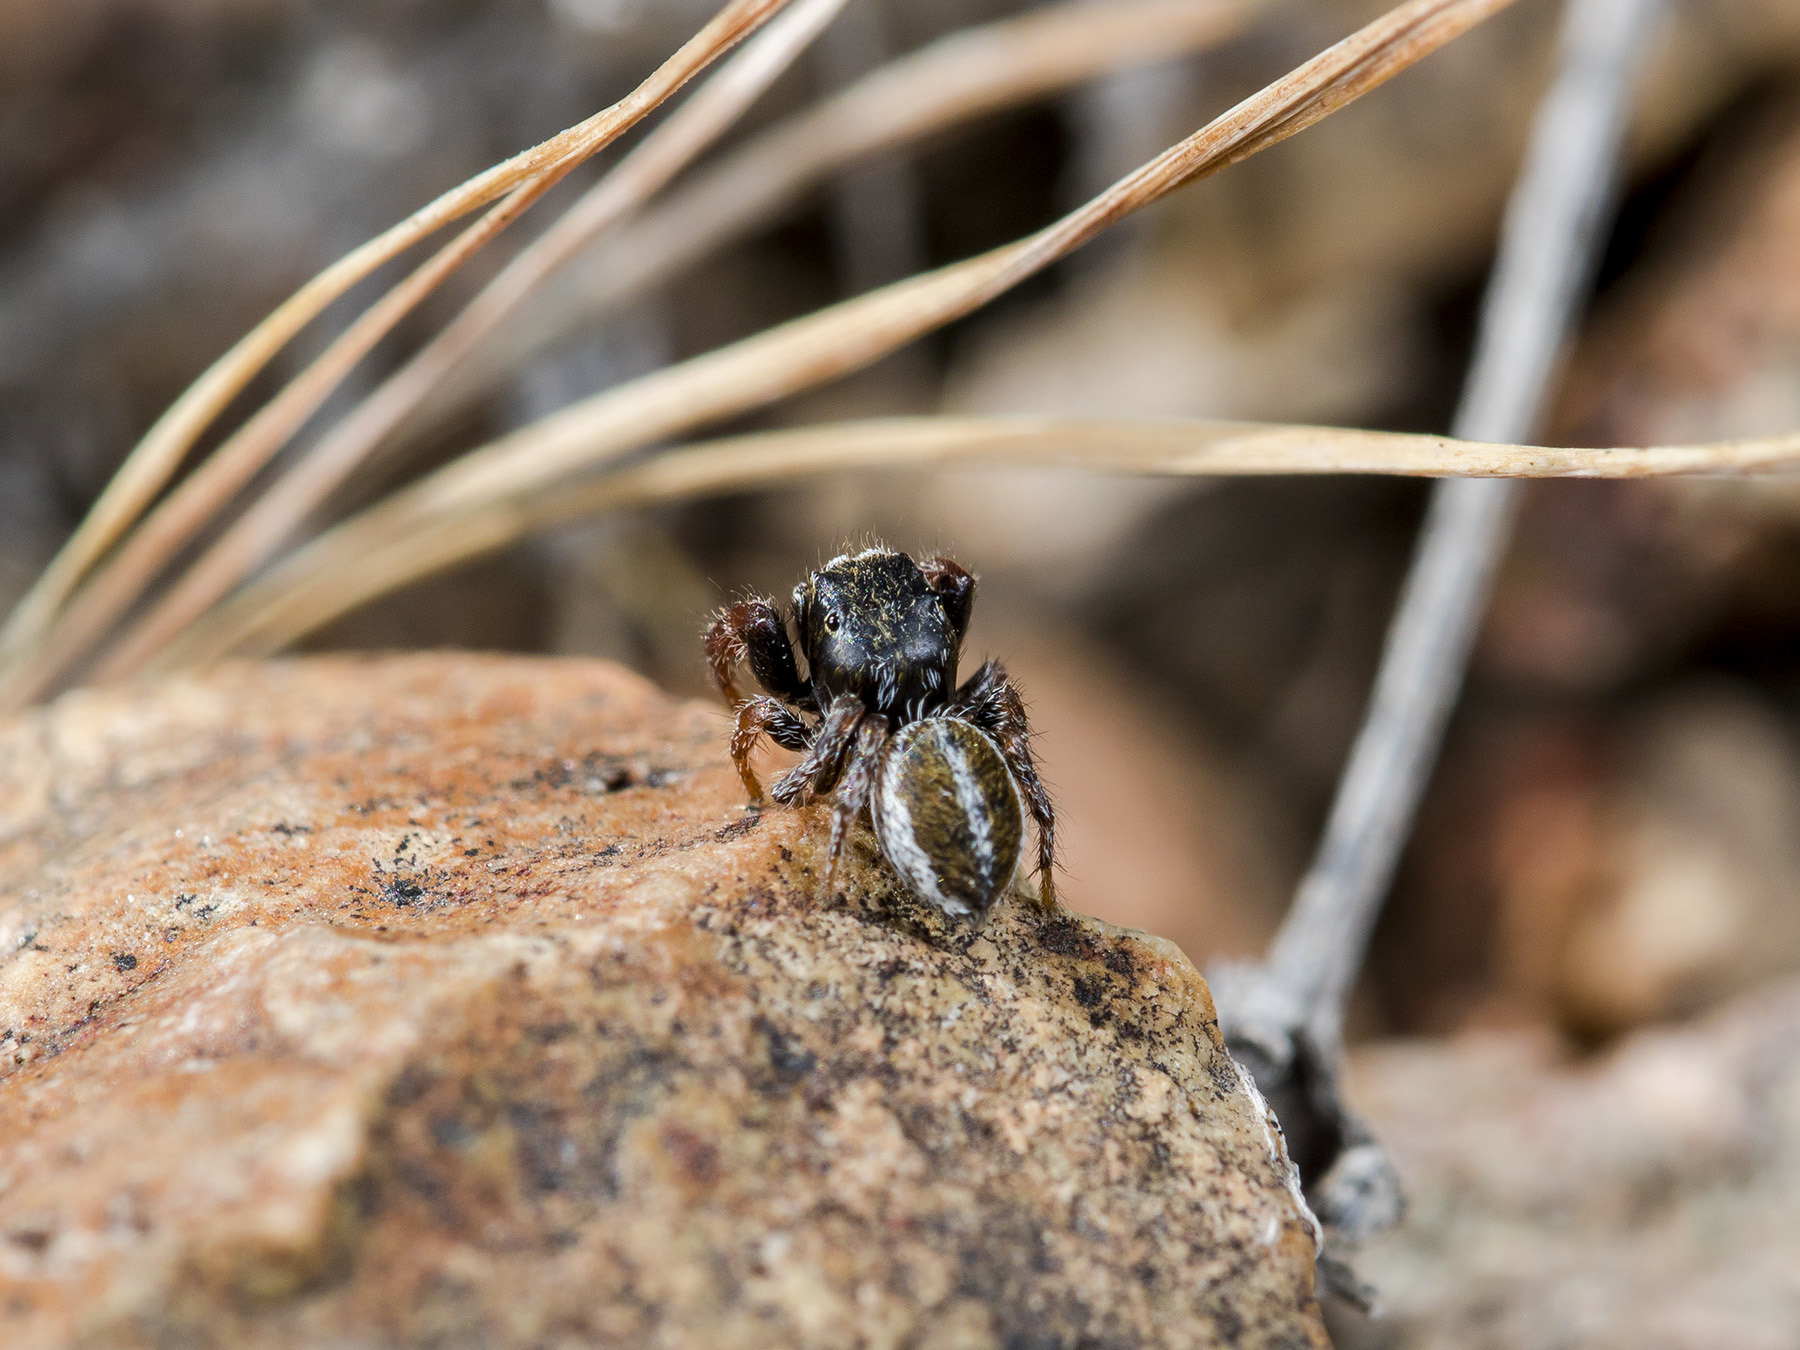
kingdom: Animalia
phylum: Arthropoda
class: Arachnida
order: Araneae
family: Salticidae
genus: Pellenes
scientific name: Pellenes epularis
